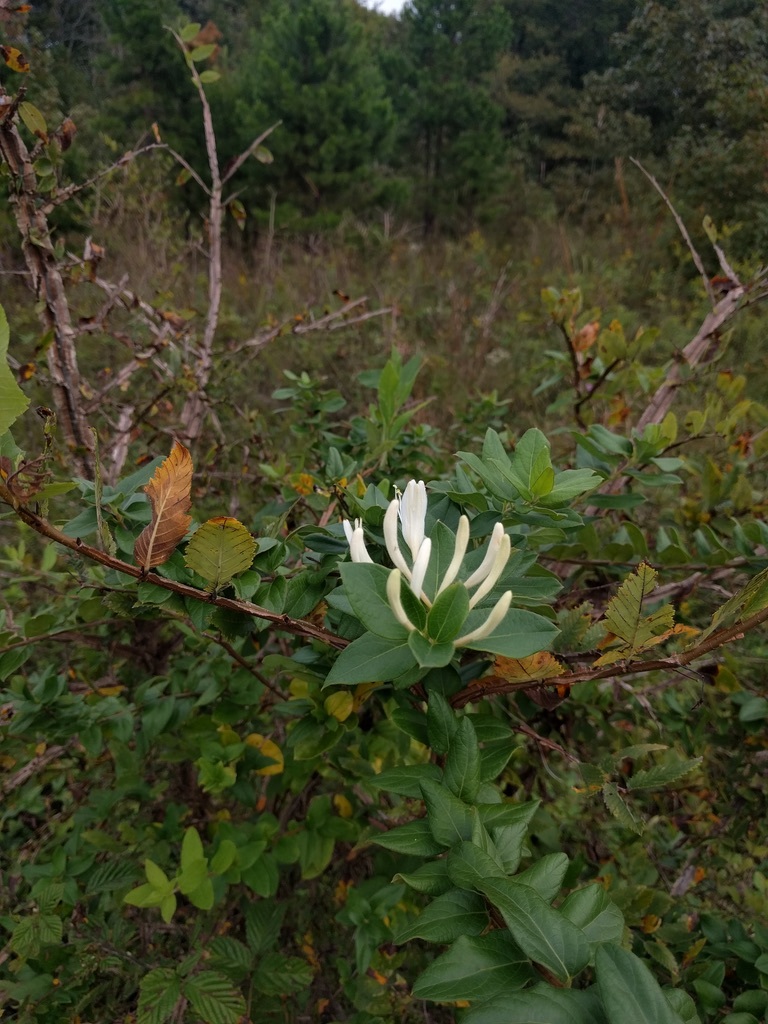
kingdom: Plantae
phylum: Tracheophyta
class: Magnoliopsida
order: Dipsacales
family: Caprifoliaceae
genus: Lonicera
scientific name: Lonicera japonica
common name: Japanese honeysuckle
